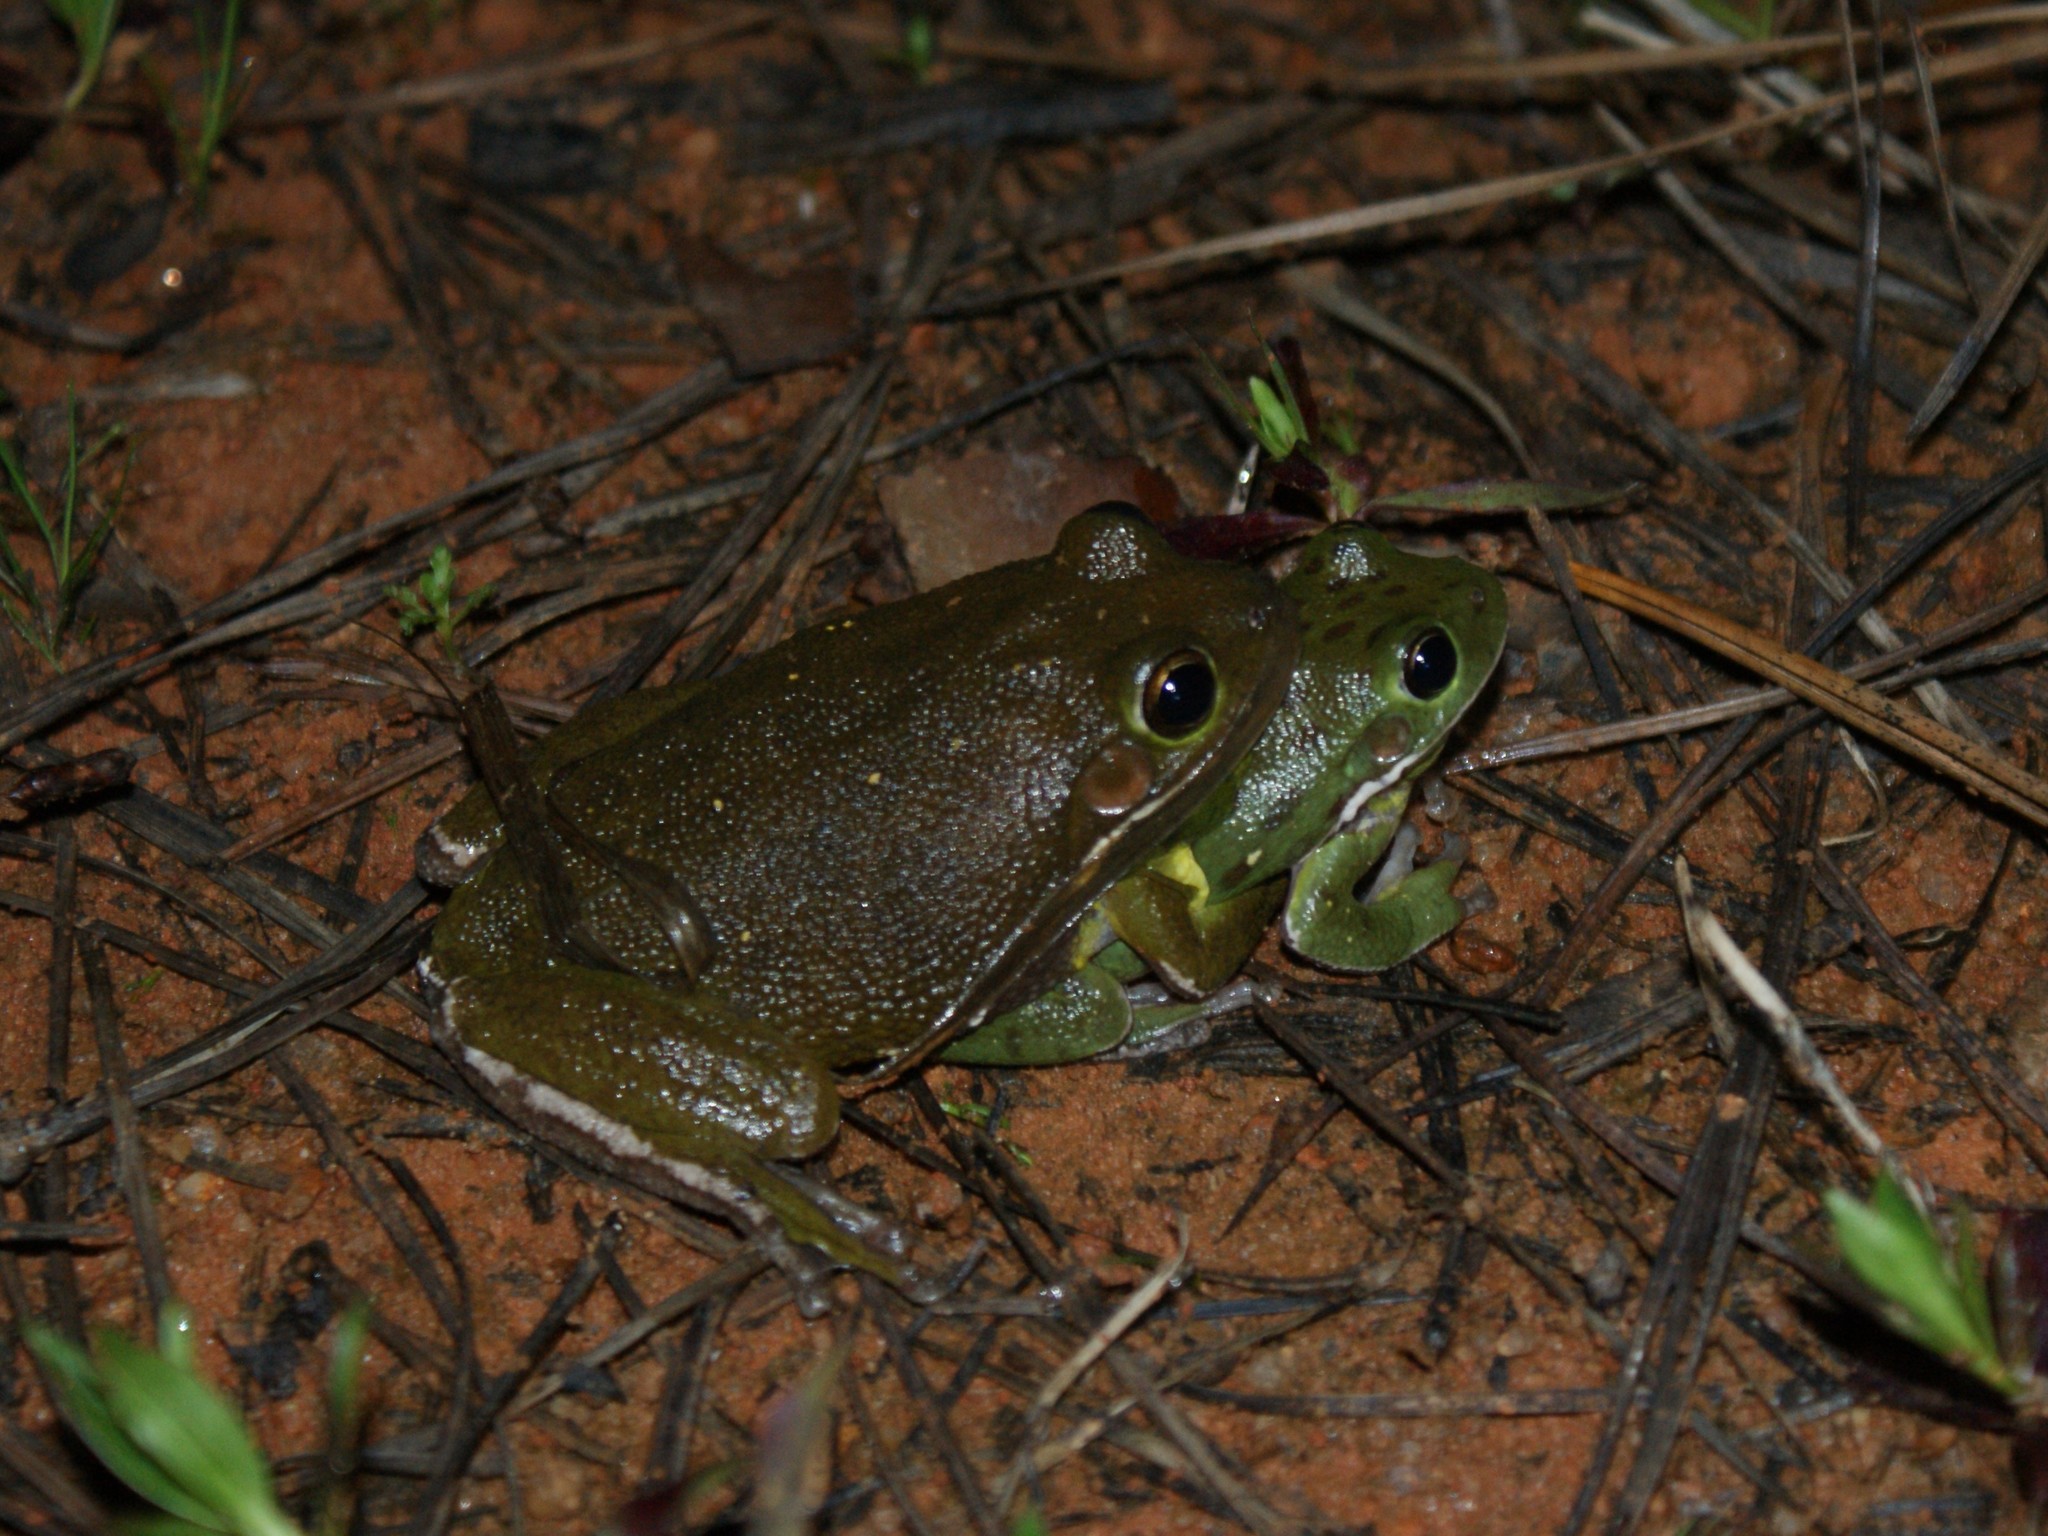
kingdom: Animalia
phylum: Chordata
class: Amphibia
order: Anura
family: Hylidae
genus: Dryophytes
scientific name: Dryophytes gratiosus
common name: Barking treefrog
